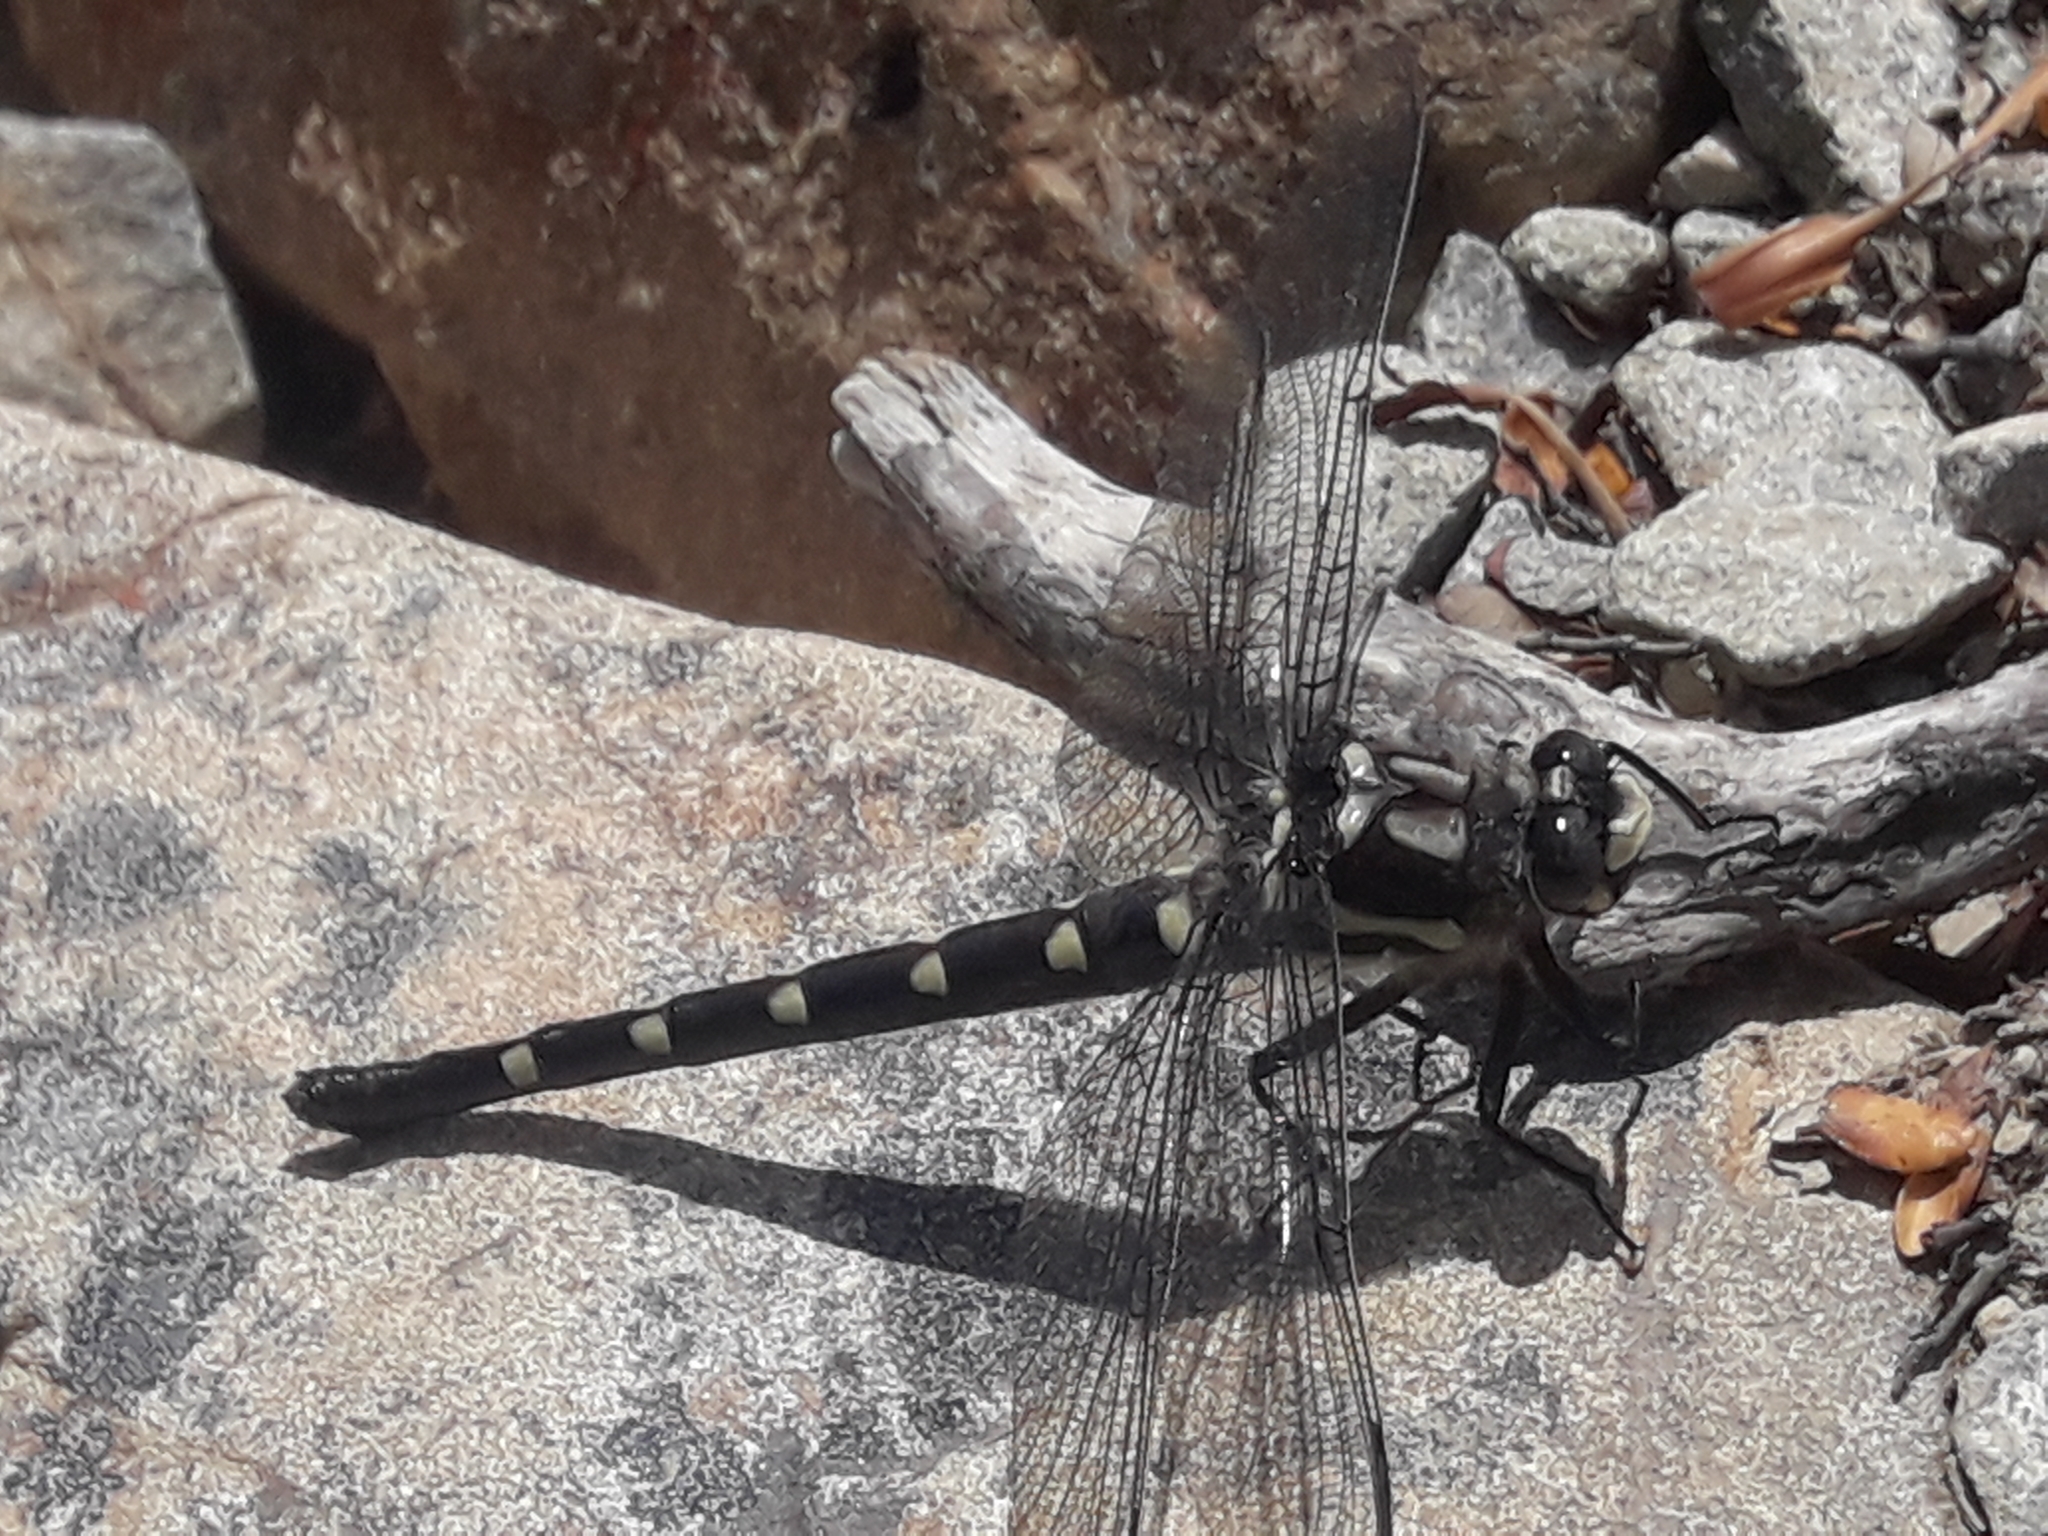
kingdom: Animalia
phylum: Arthropoda
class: Insecta
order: Odonata
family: Petaluridae
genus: Uropetala
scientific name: Uropetala chiltoni
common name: Mountain giant dragonfly
